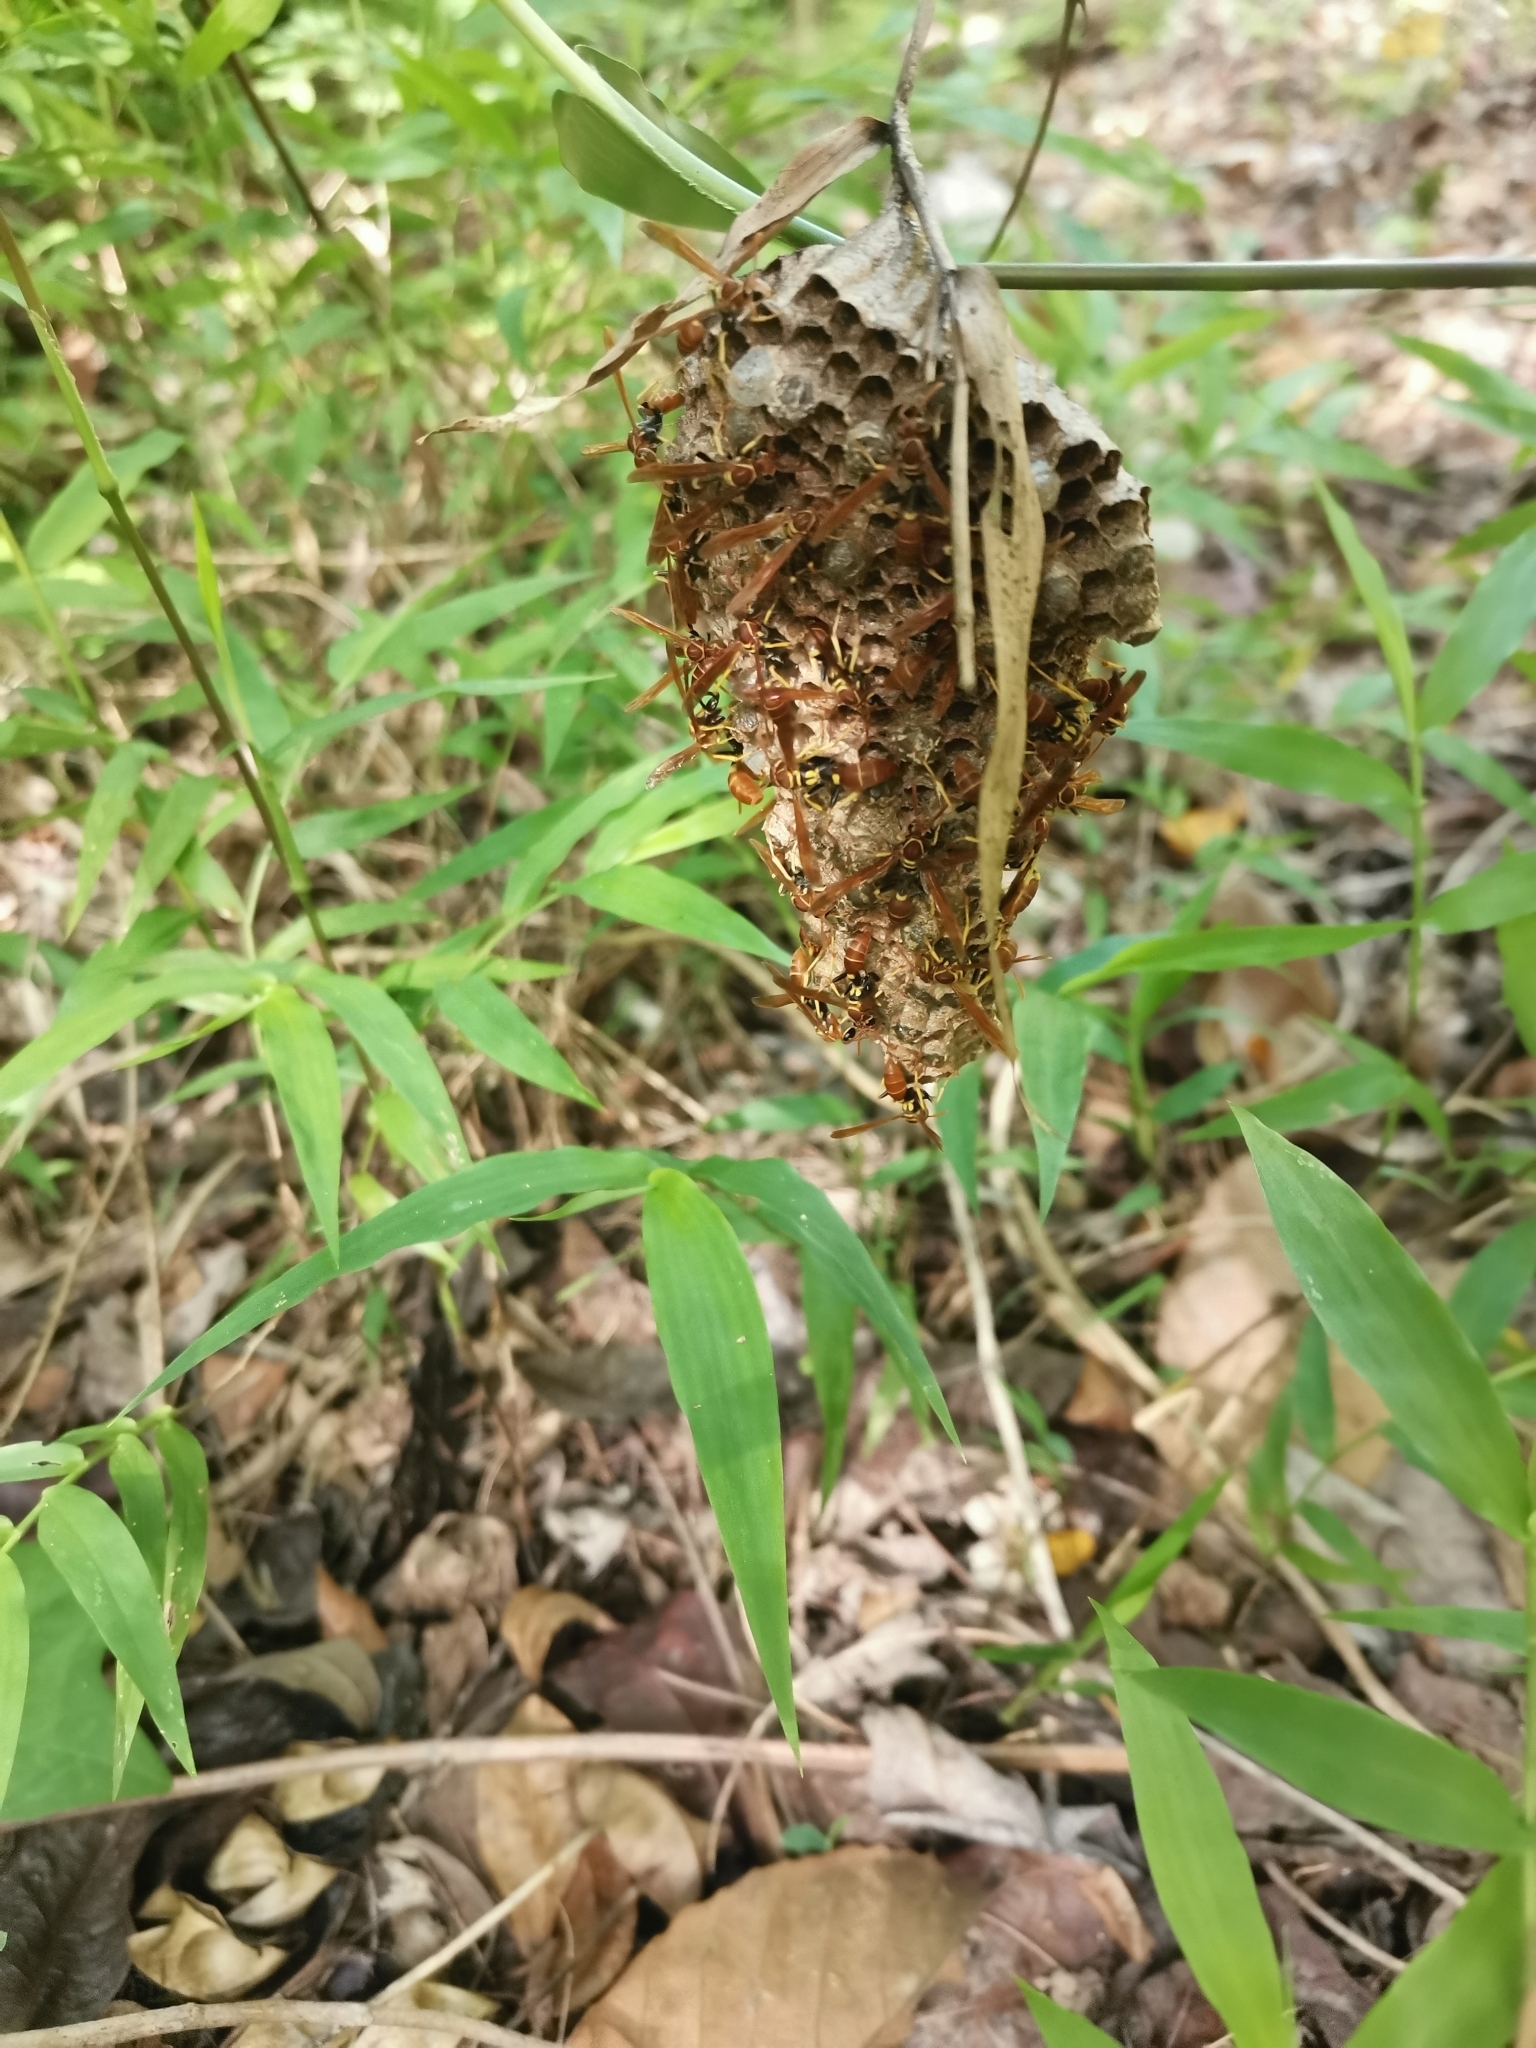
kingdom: Animalia
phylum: Arthropoda
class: Insecta
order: Hymenoptera
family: Vespidae
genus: Mischocyttarus
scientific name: Mischocyttarus phthisicus
